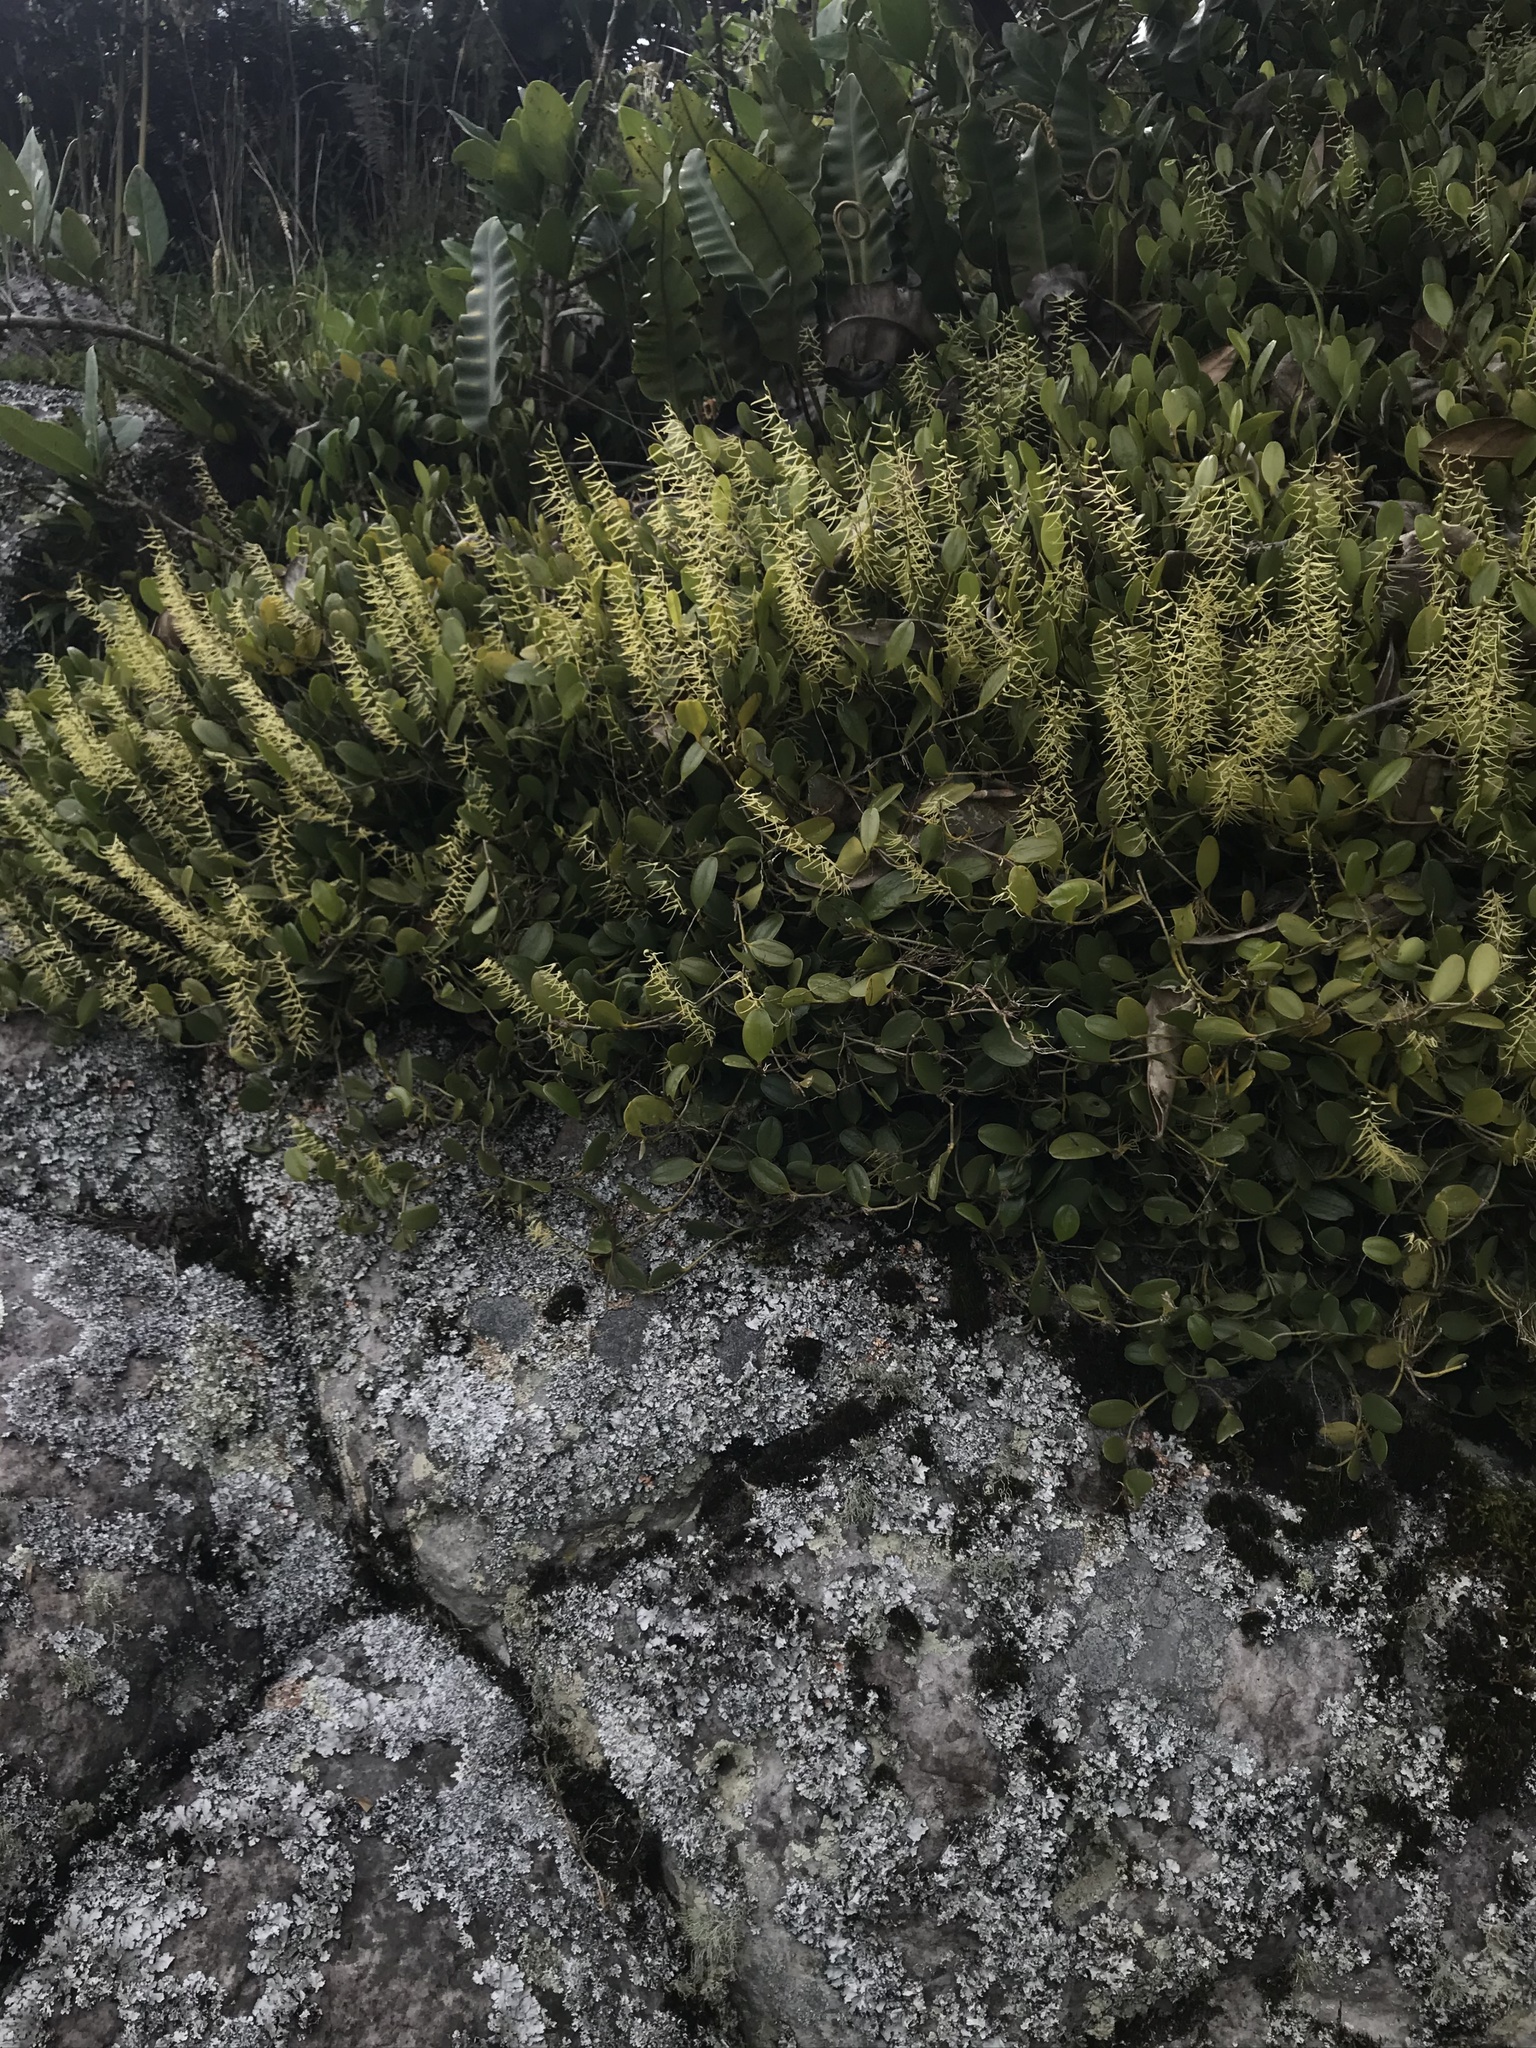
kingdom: Plantae
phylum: Tracheophyta
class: Liliopsida
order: Asparagales
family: Orchidaceae
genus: Stelis
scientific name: Stelis sclerophylla
